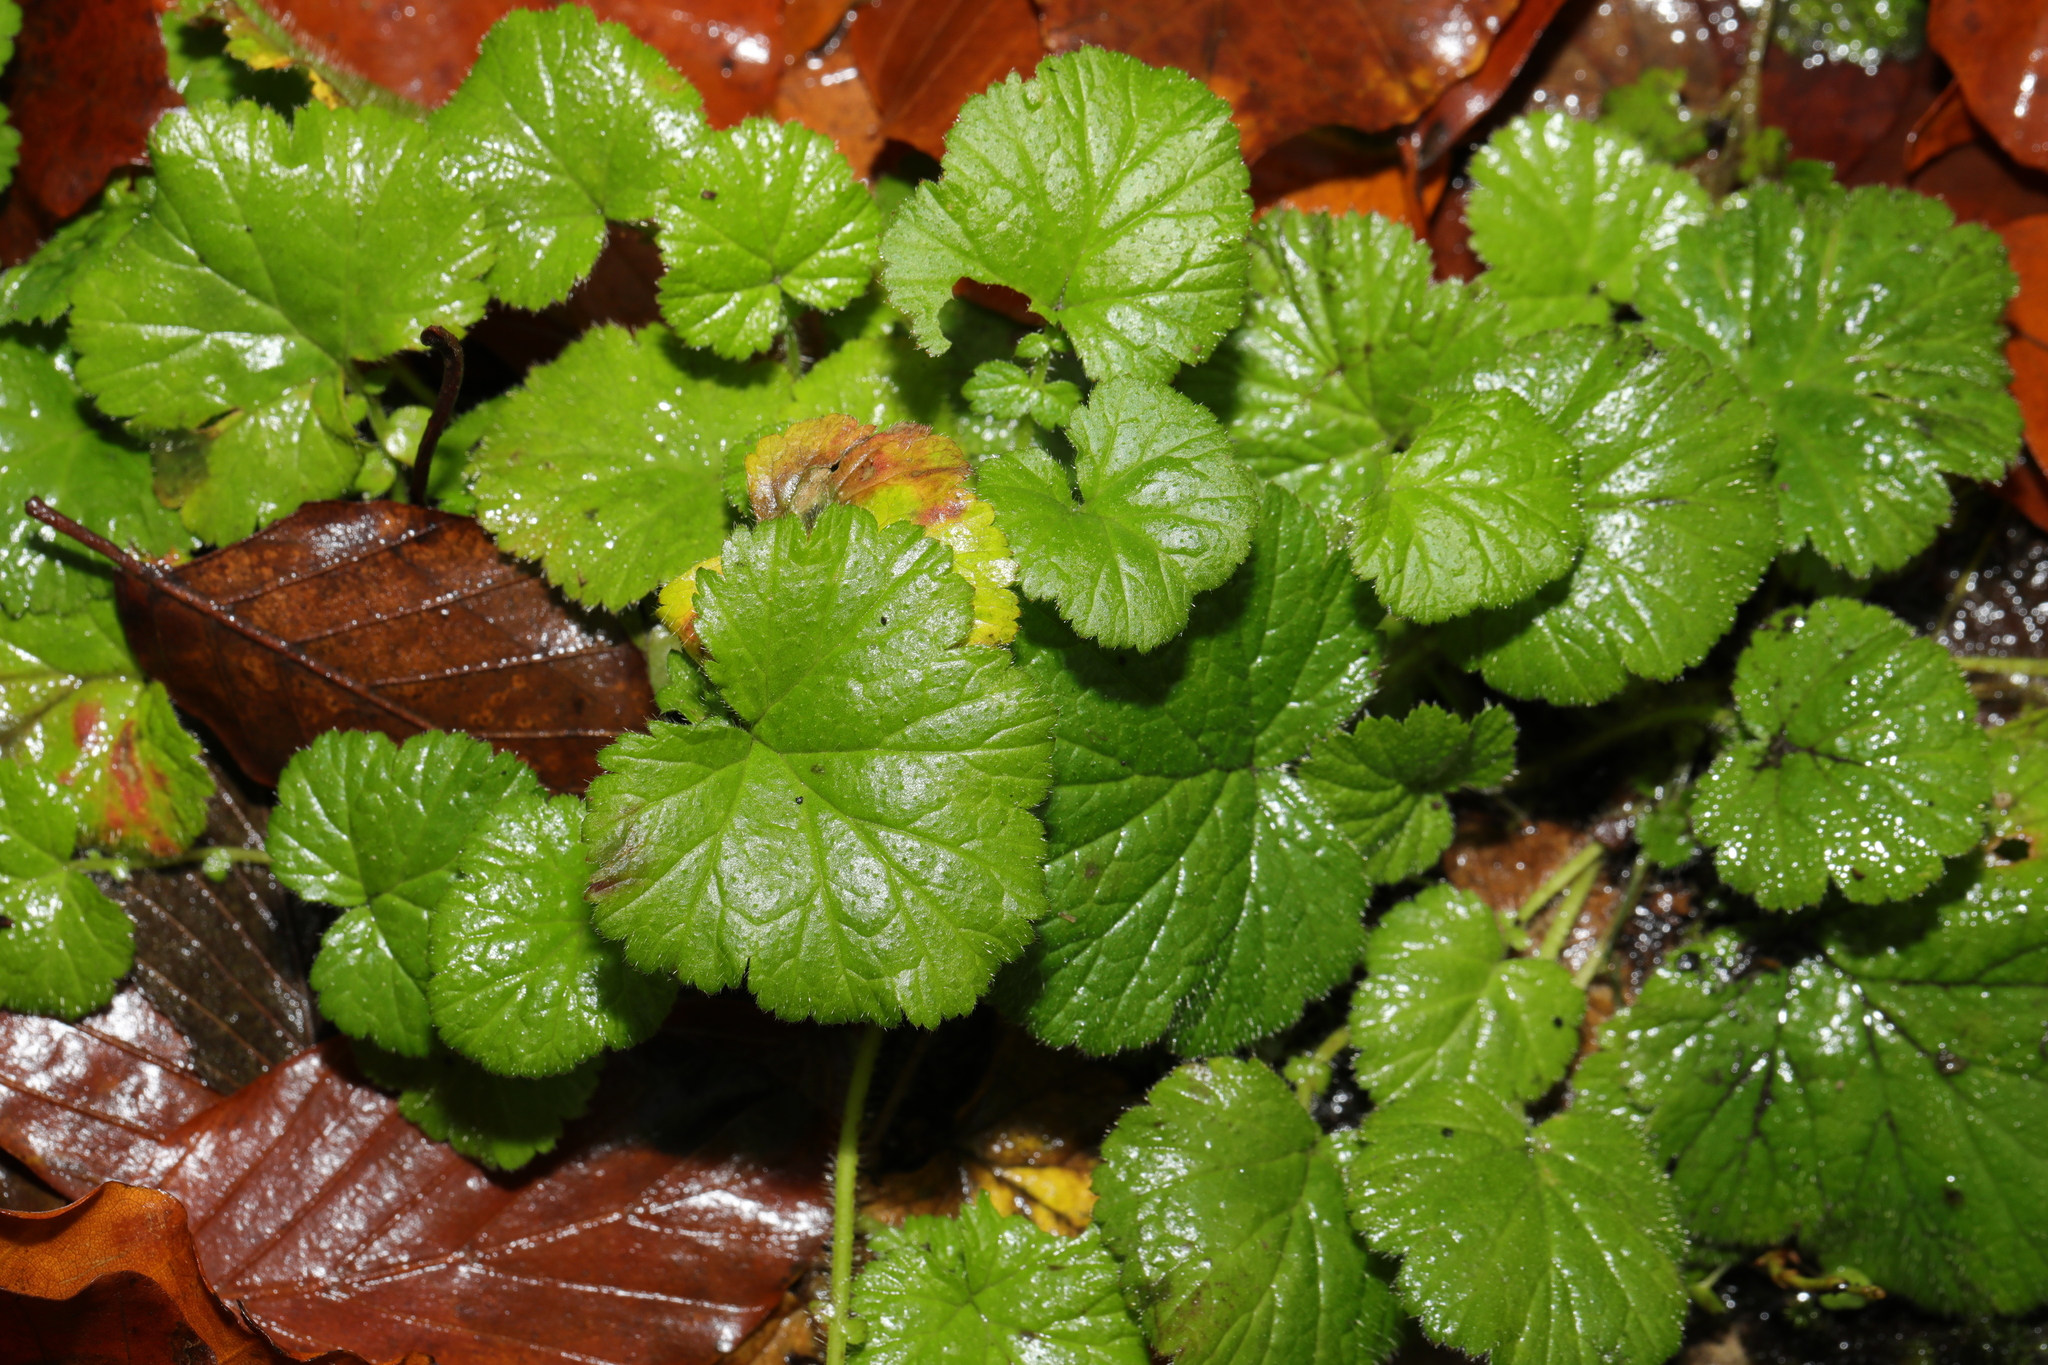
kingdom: Plantae
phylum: Tracheophyta
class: Magnoliopsida
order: Rosales
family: Rosaceae
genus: Geum
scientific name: Geum urbanum
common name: Wood avens
